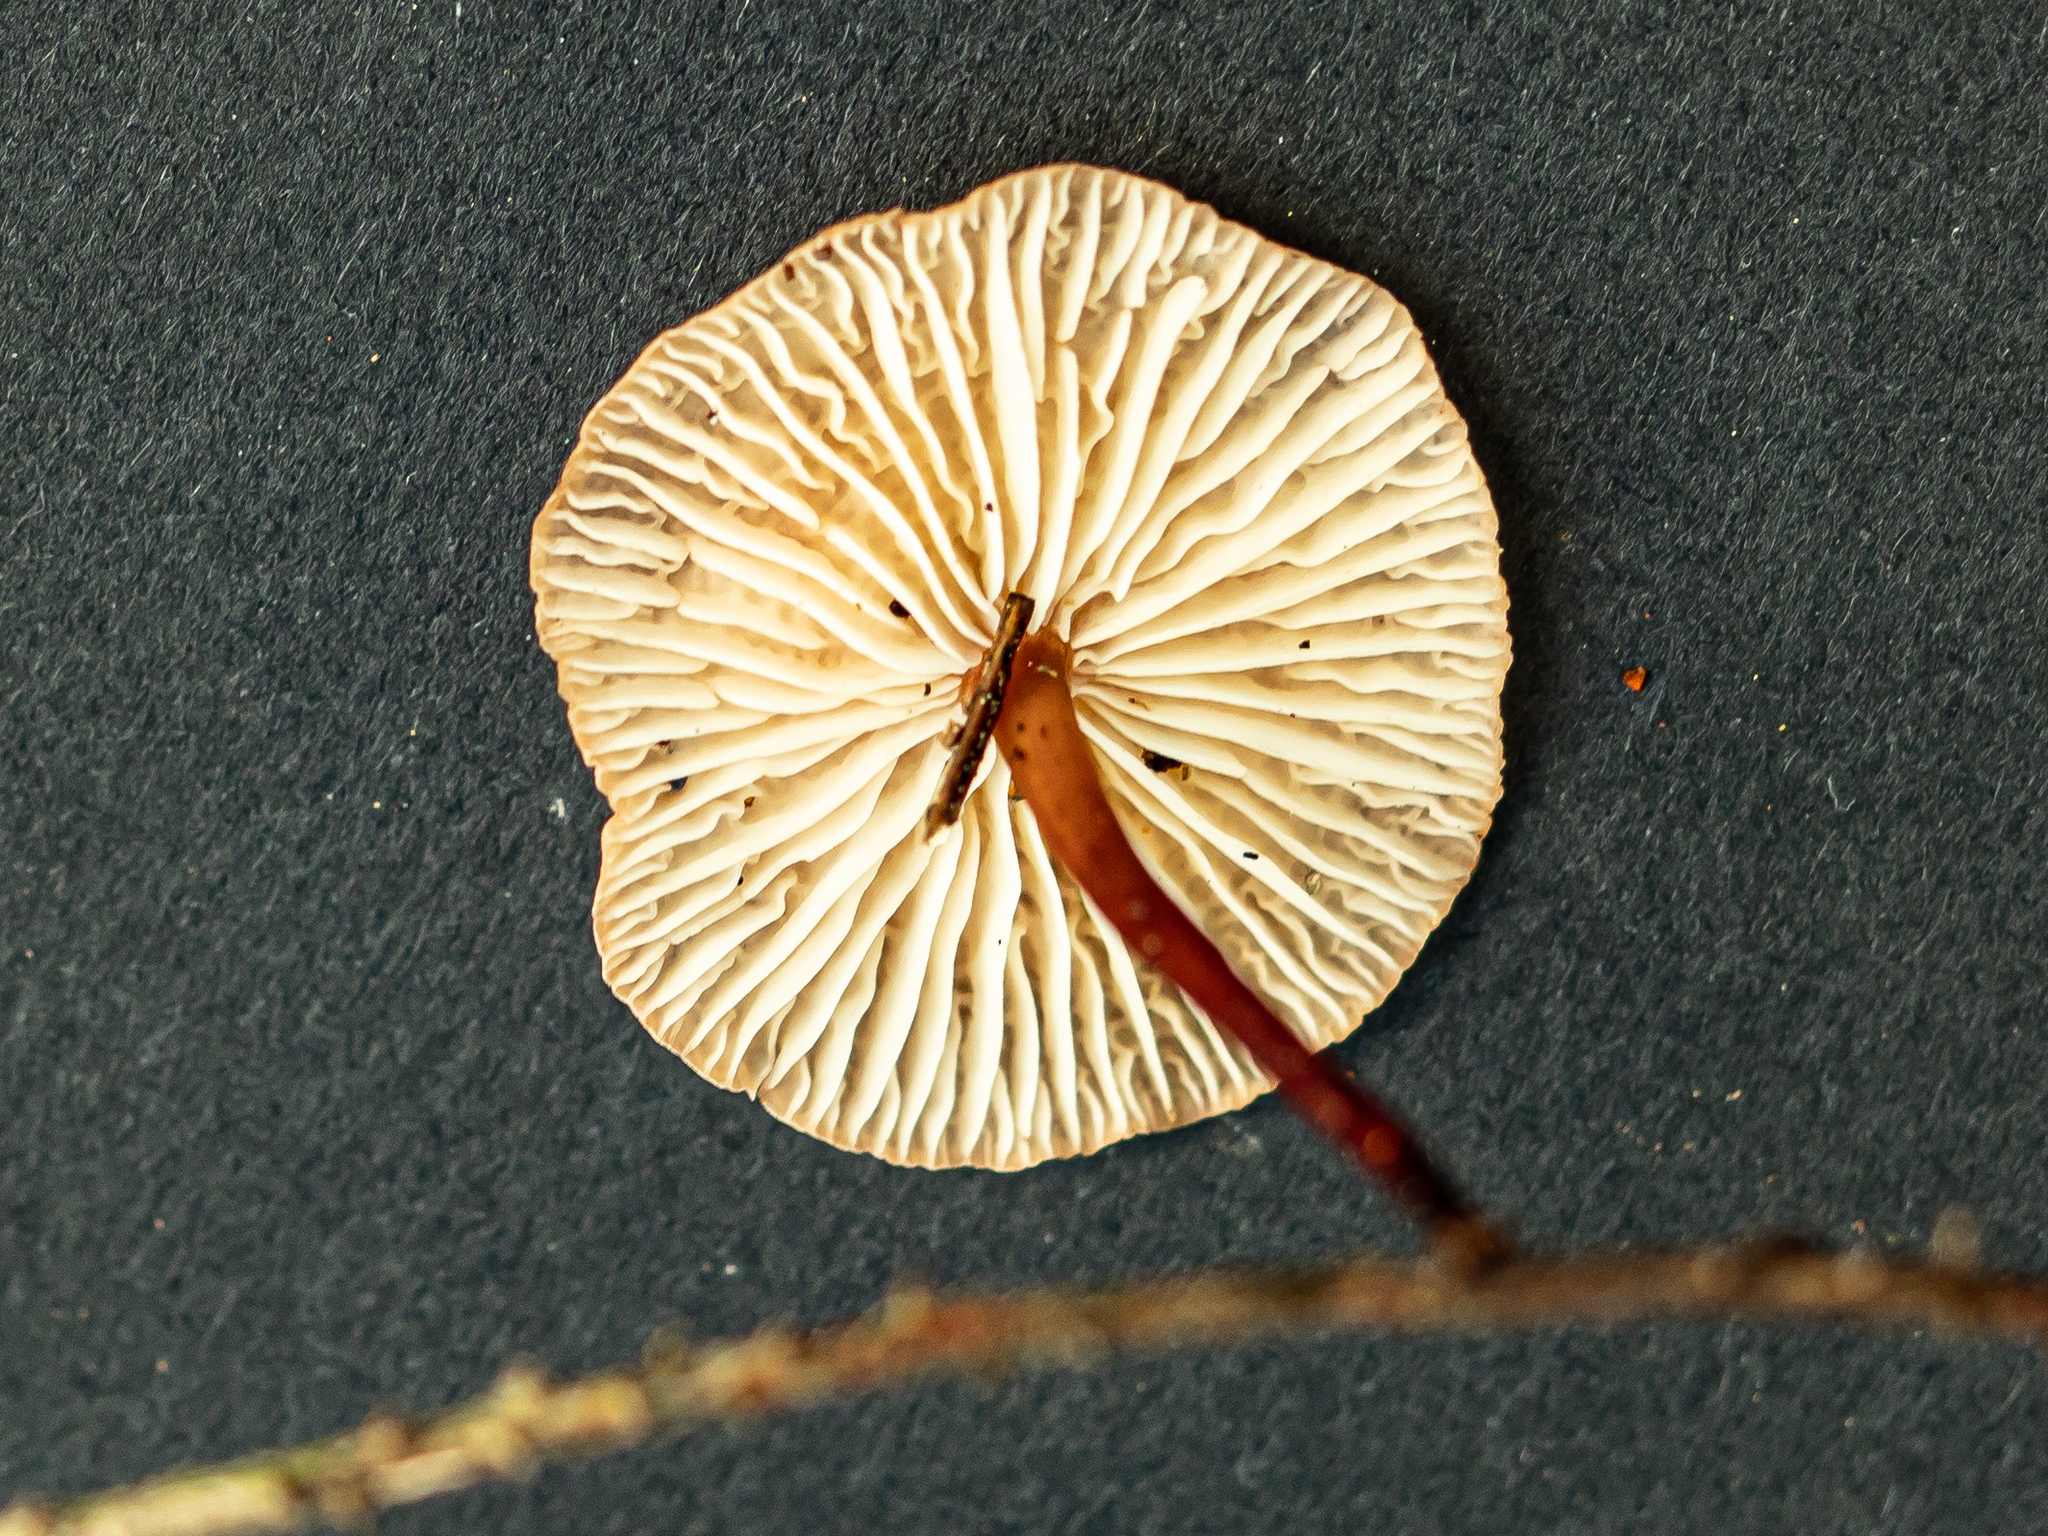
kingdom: Fungi
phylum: Basidiomycota
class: Agaricomycetes
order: Agaricales
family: Omphalotaceae
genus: Mycetinis
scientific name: Mycetinis scorodonius
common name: Vampires bane
